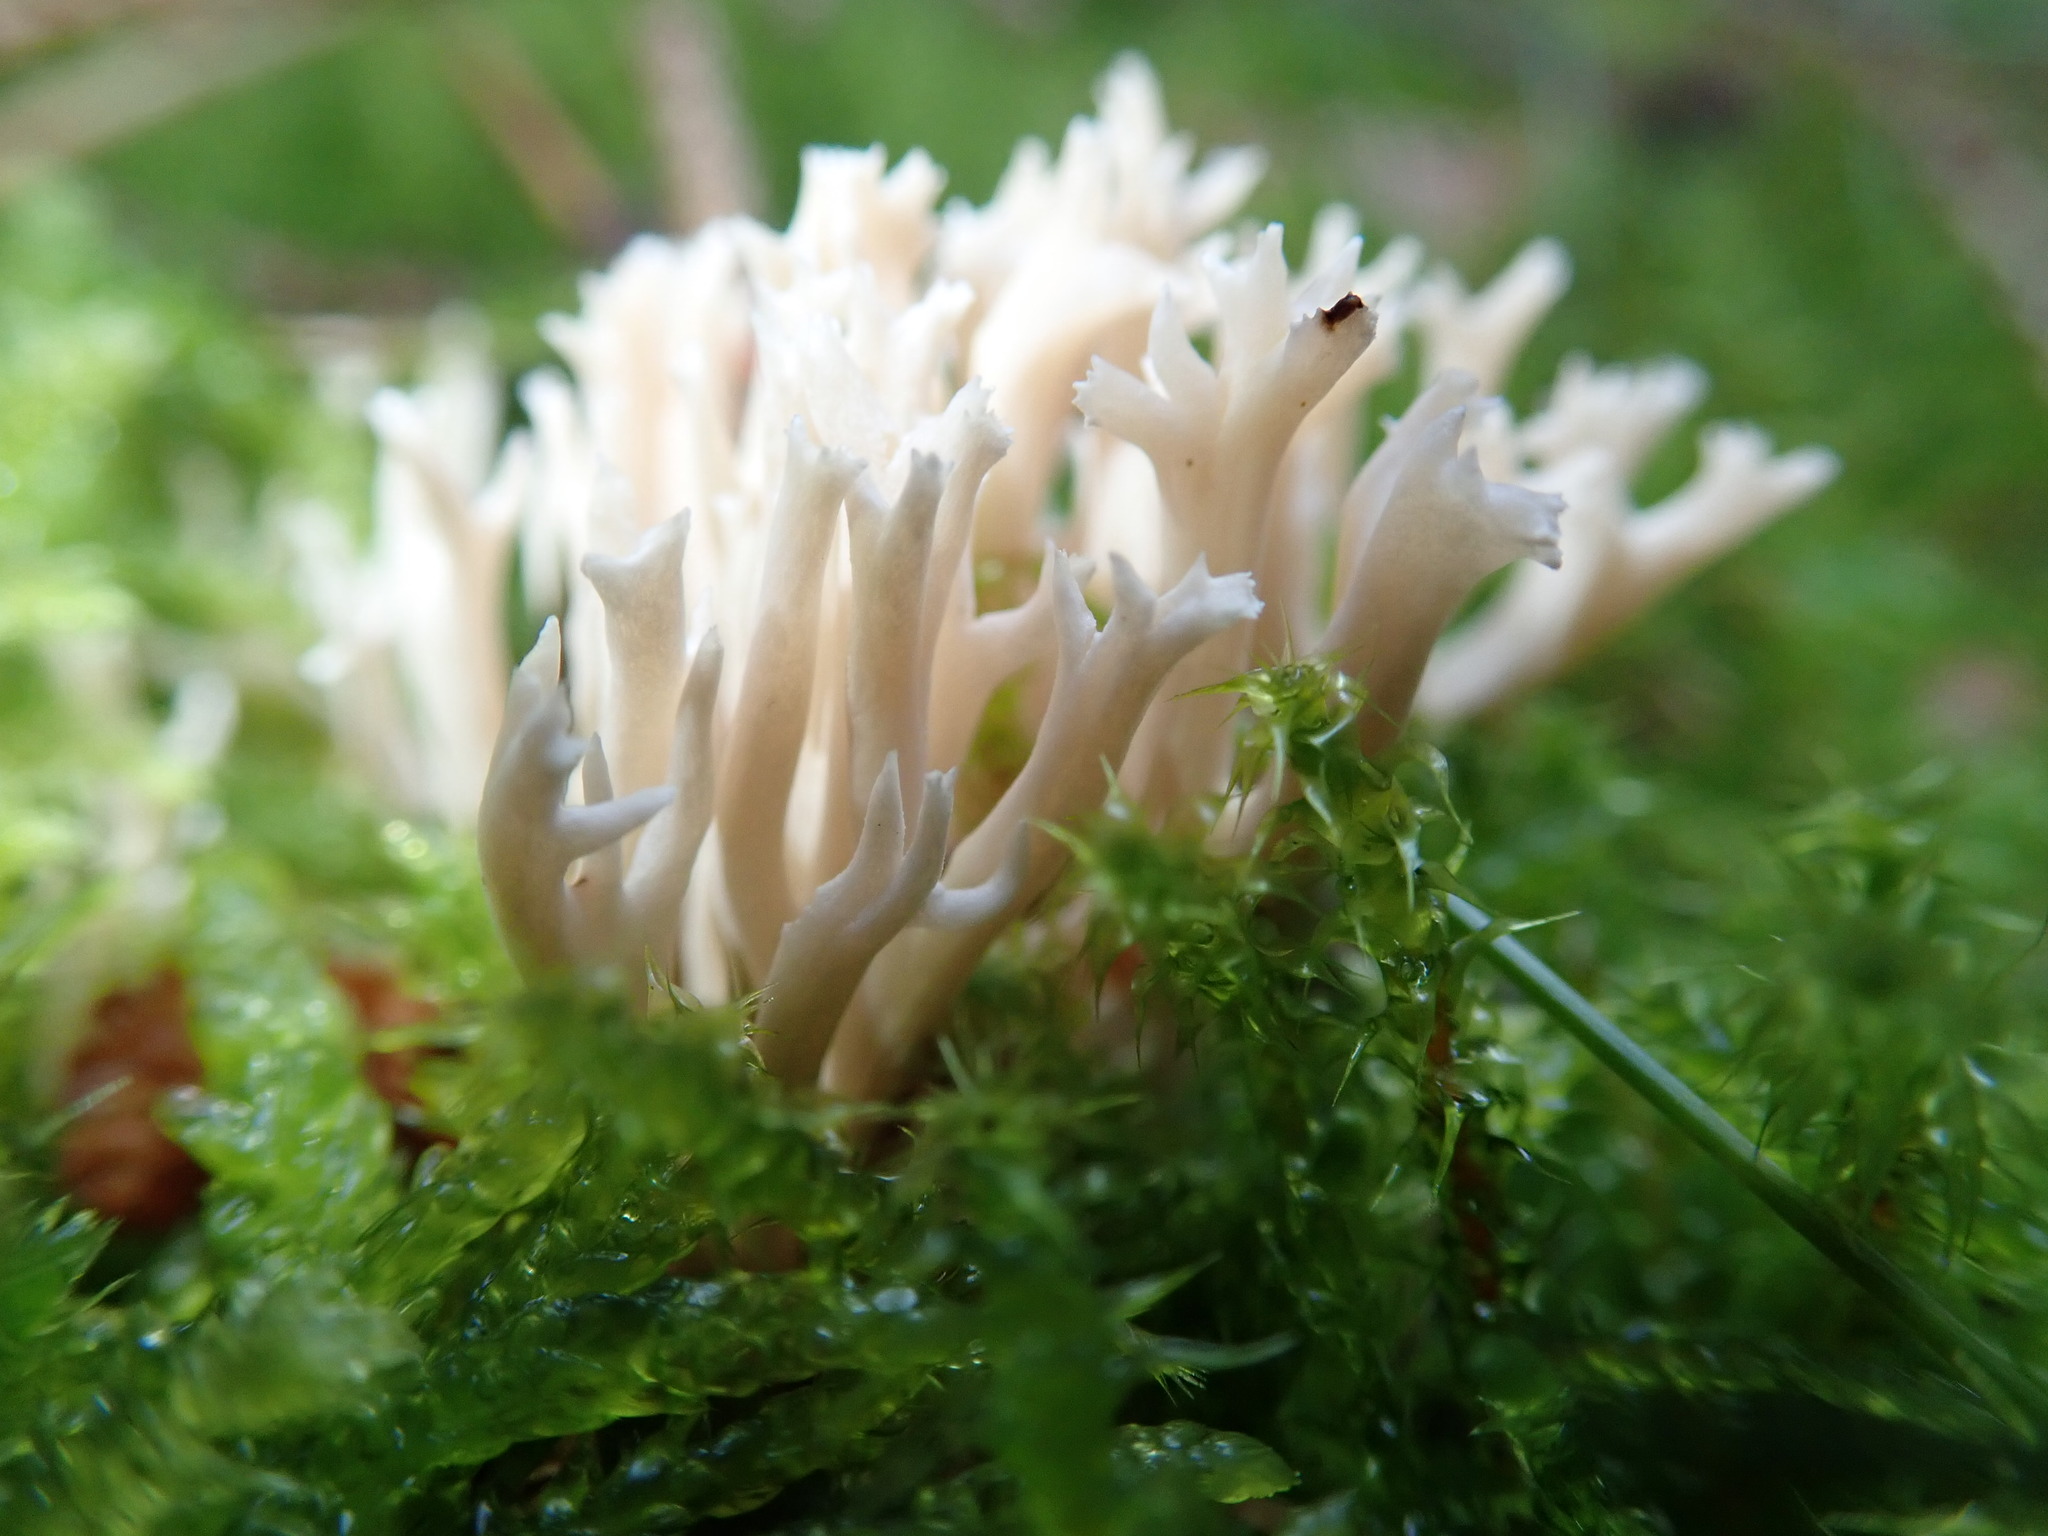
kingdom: Fungi
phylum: Basidiomycota
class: Agaricomycetes
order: Cantharellales
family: Hydnaceae
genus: Clavulina
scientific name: Clavulina coralloides
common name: Crested coral
